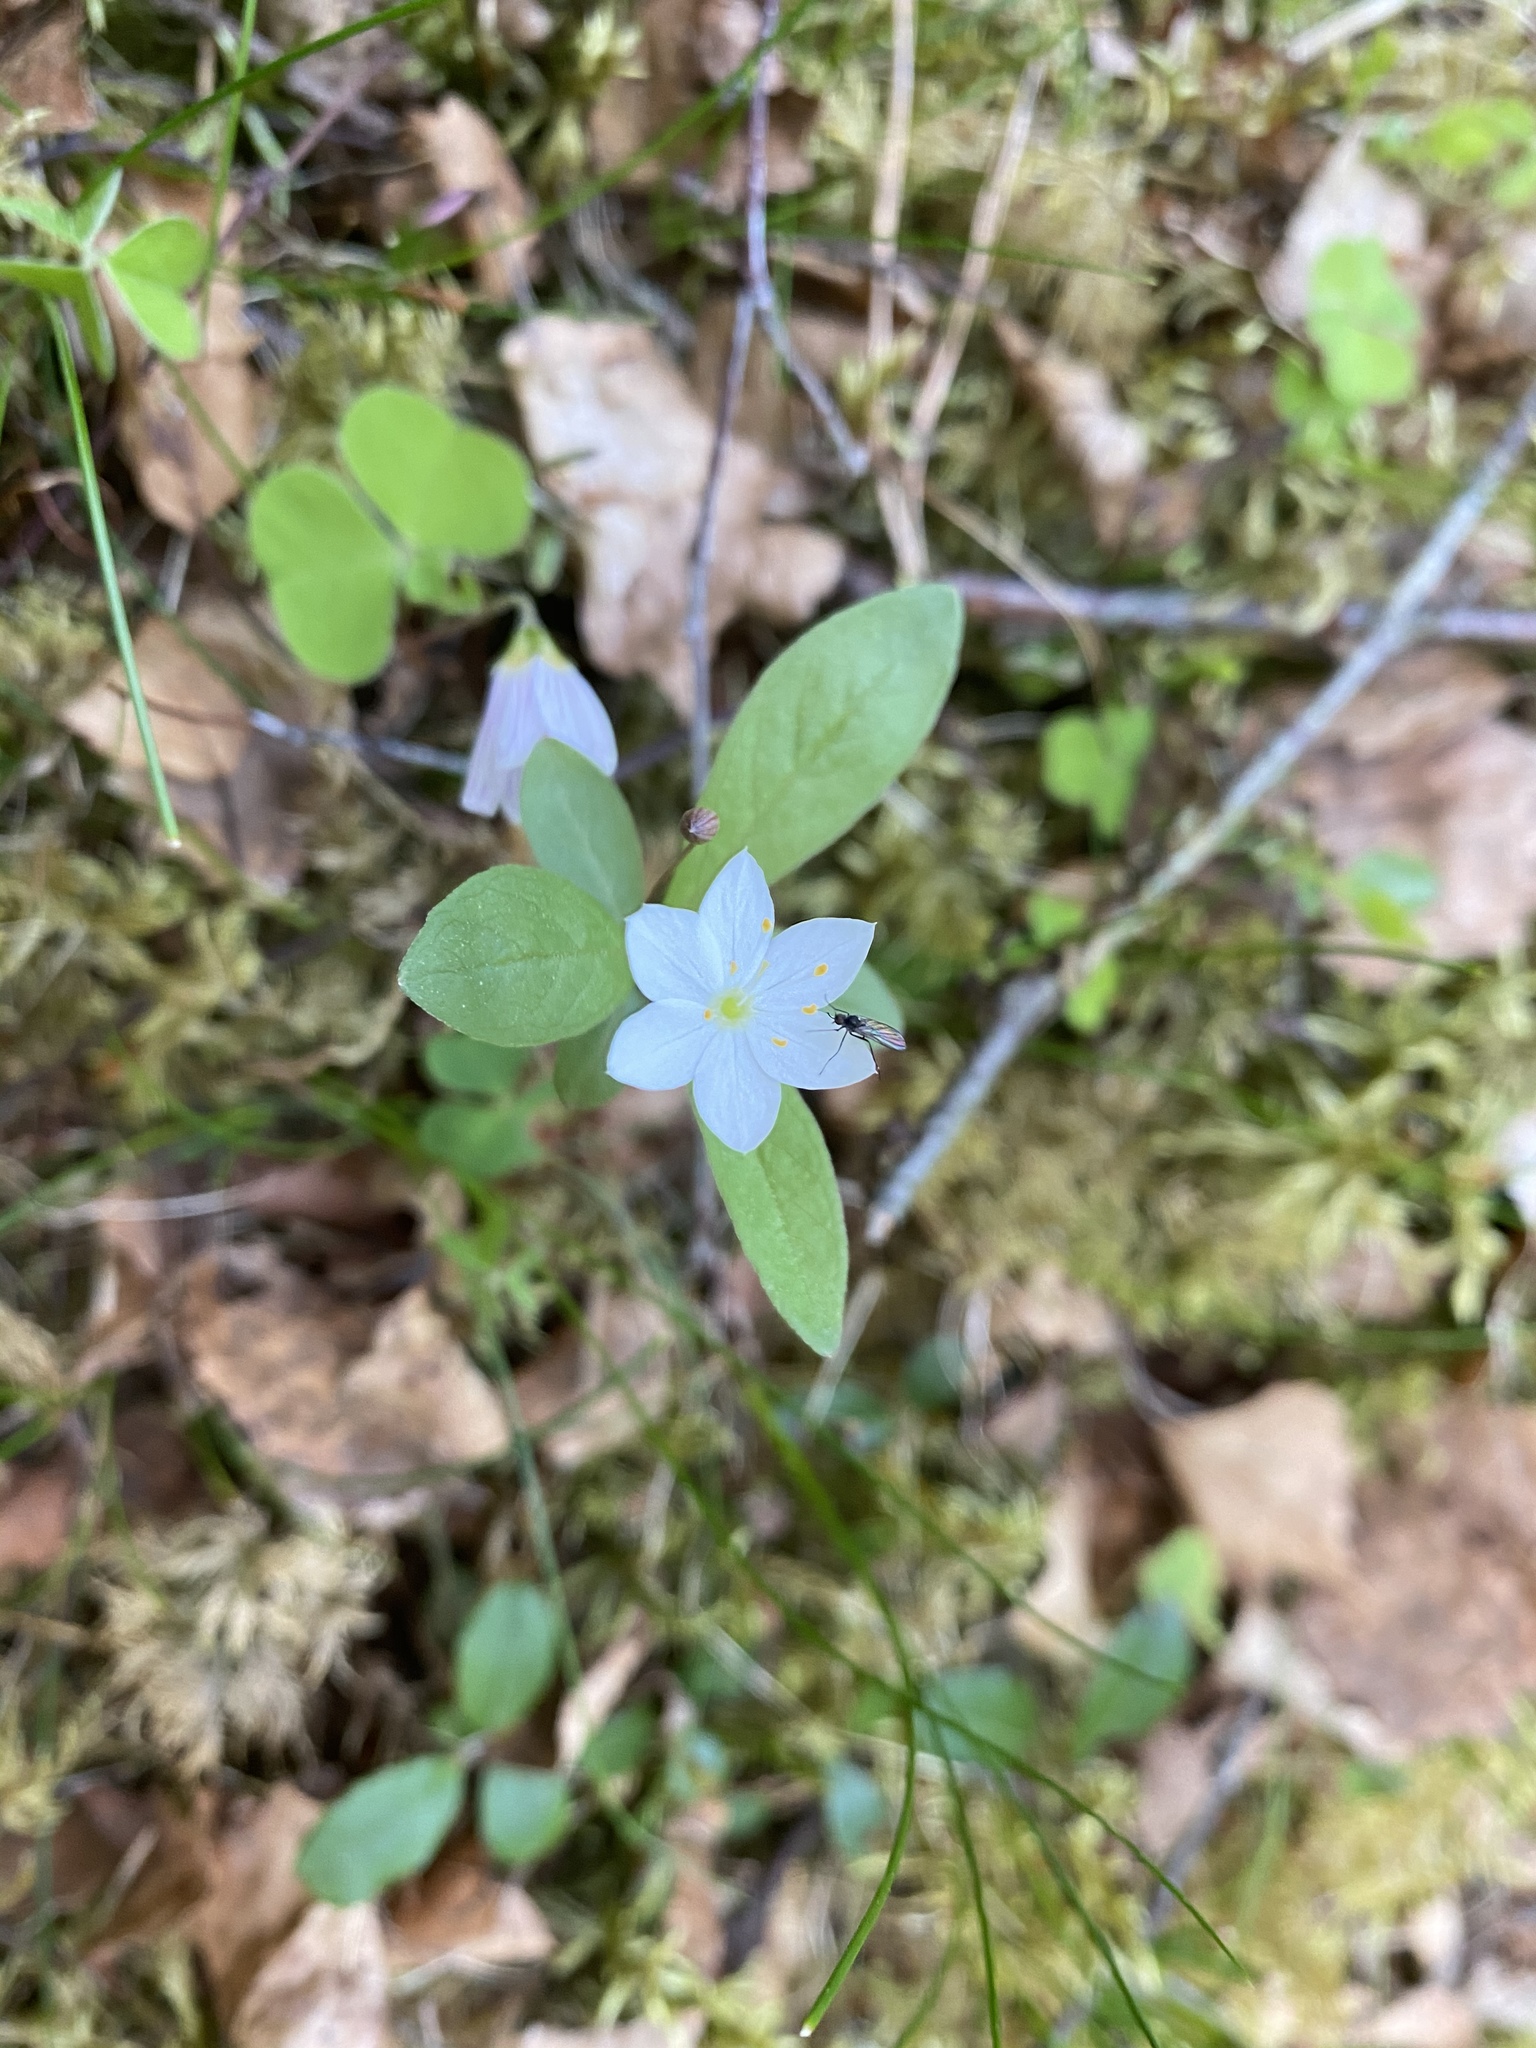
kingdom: Plantae
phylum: Tracheophyta
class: Magnoliopsida
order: Ericales
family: Primulaceae
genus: Lysimachia
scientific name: Lysimachia europaea
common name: Arctic starflower
